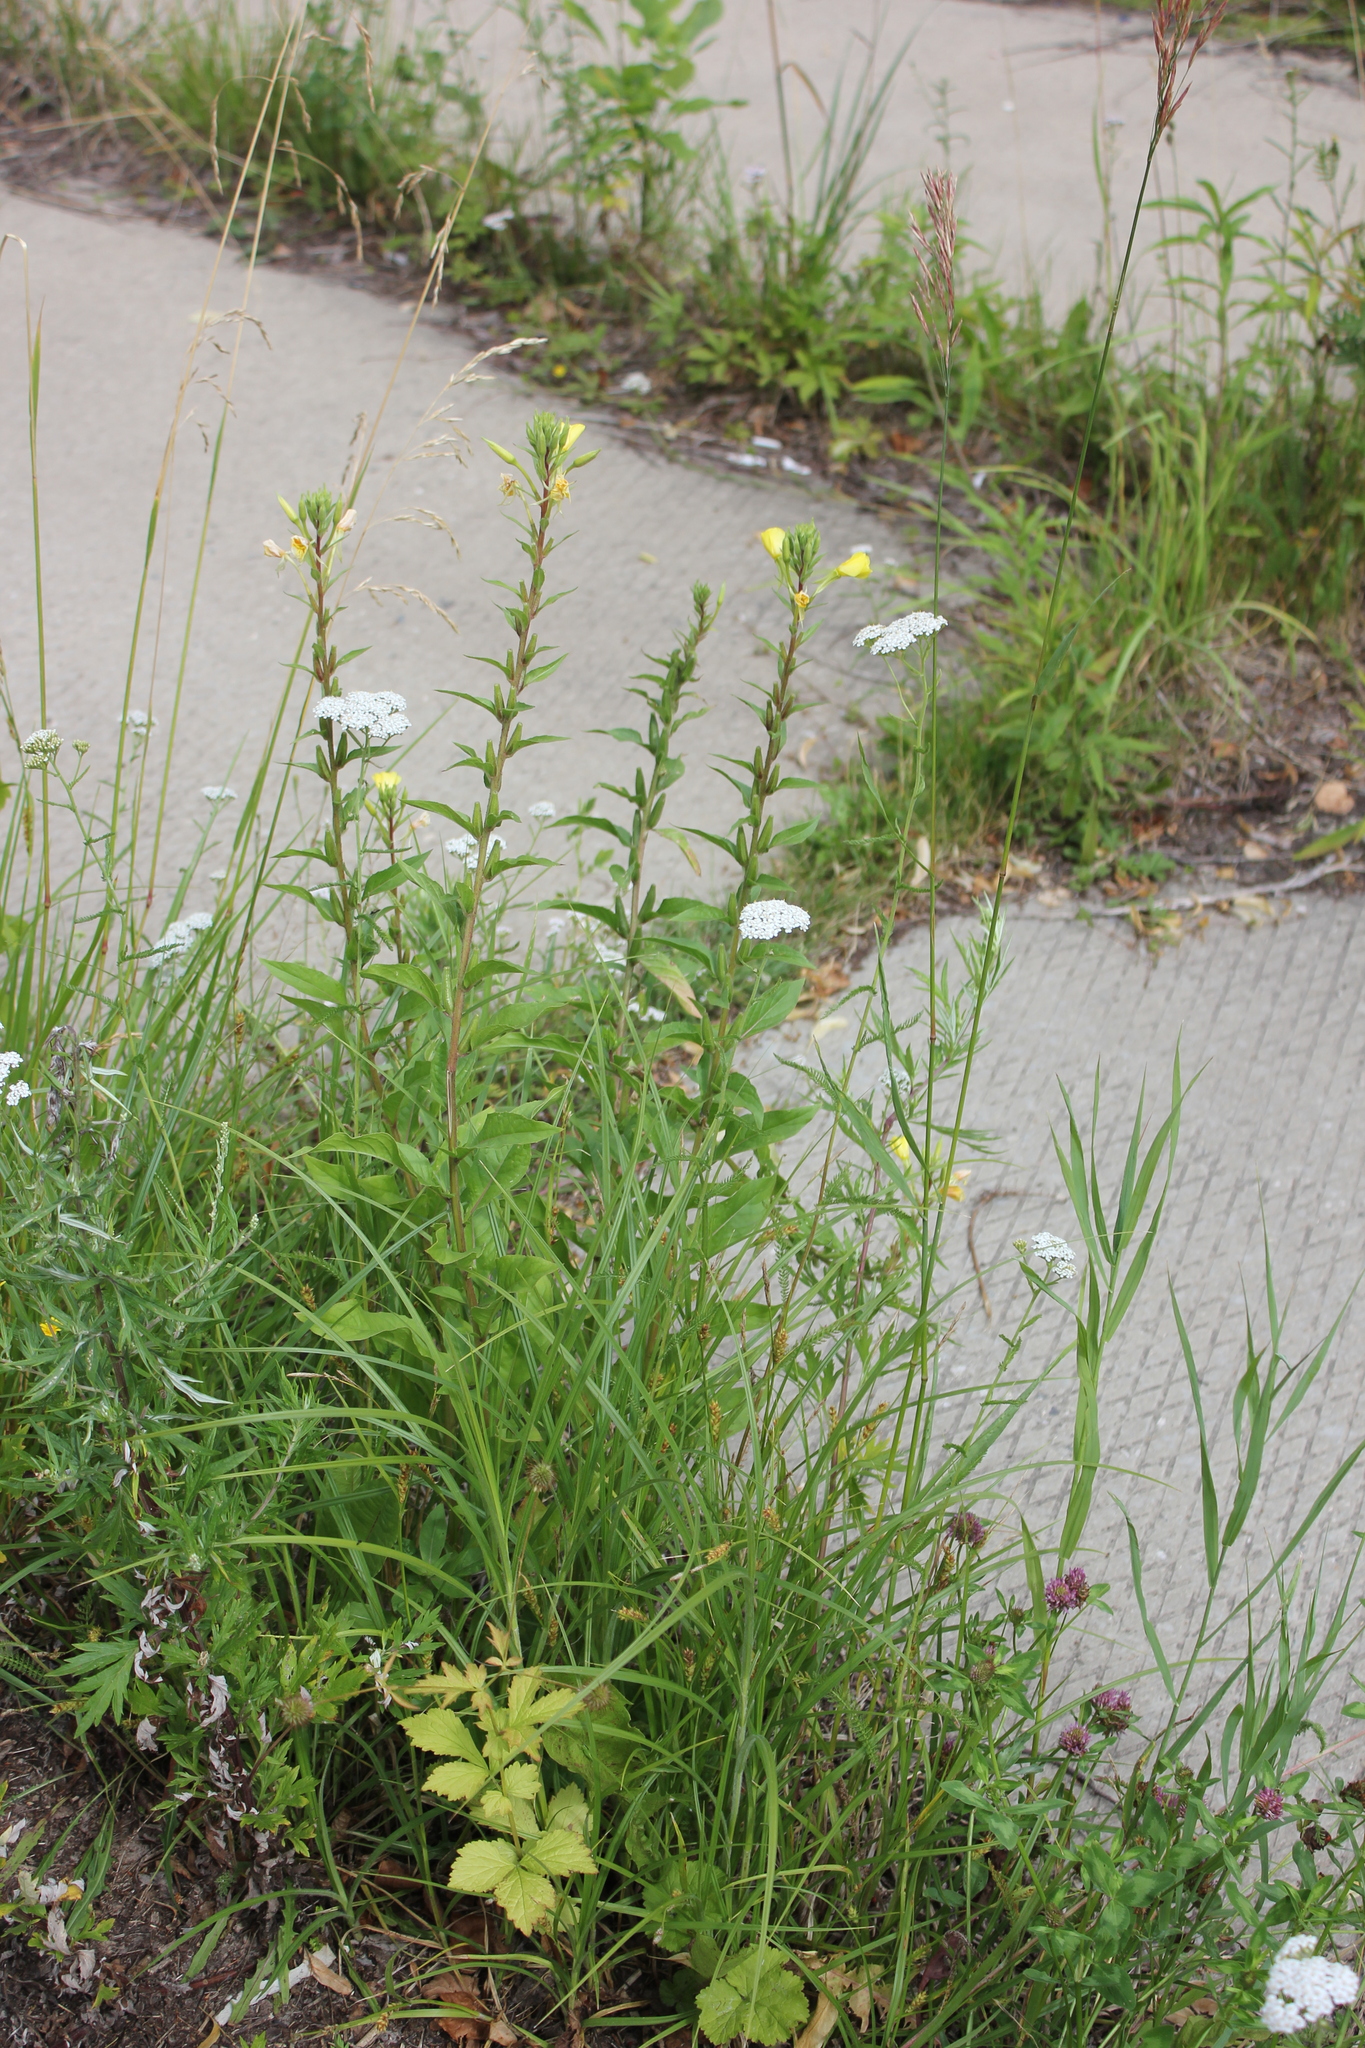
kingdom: Plantae
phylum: Tracheophyta
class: Magnoliopsida
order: Myrtales
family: Onagraceae
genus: Oenothera
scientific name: Oenothera rubricaulis
